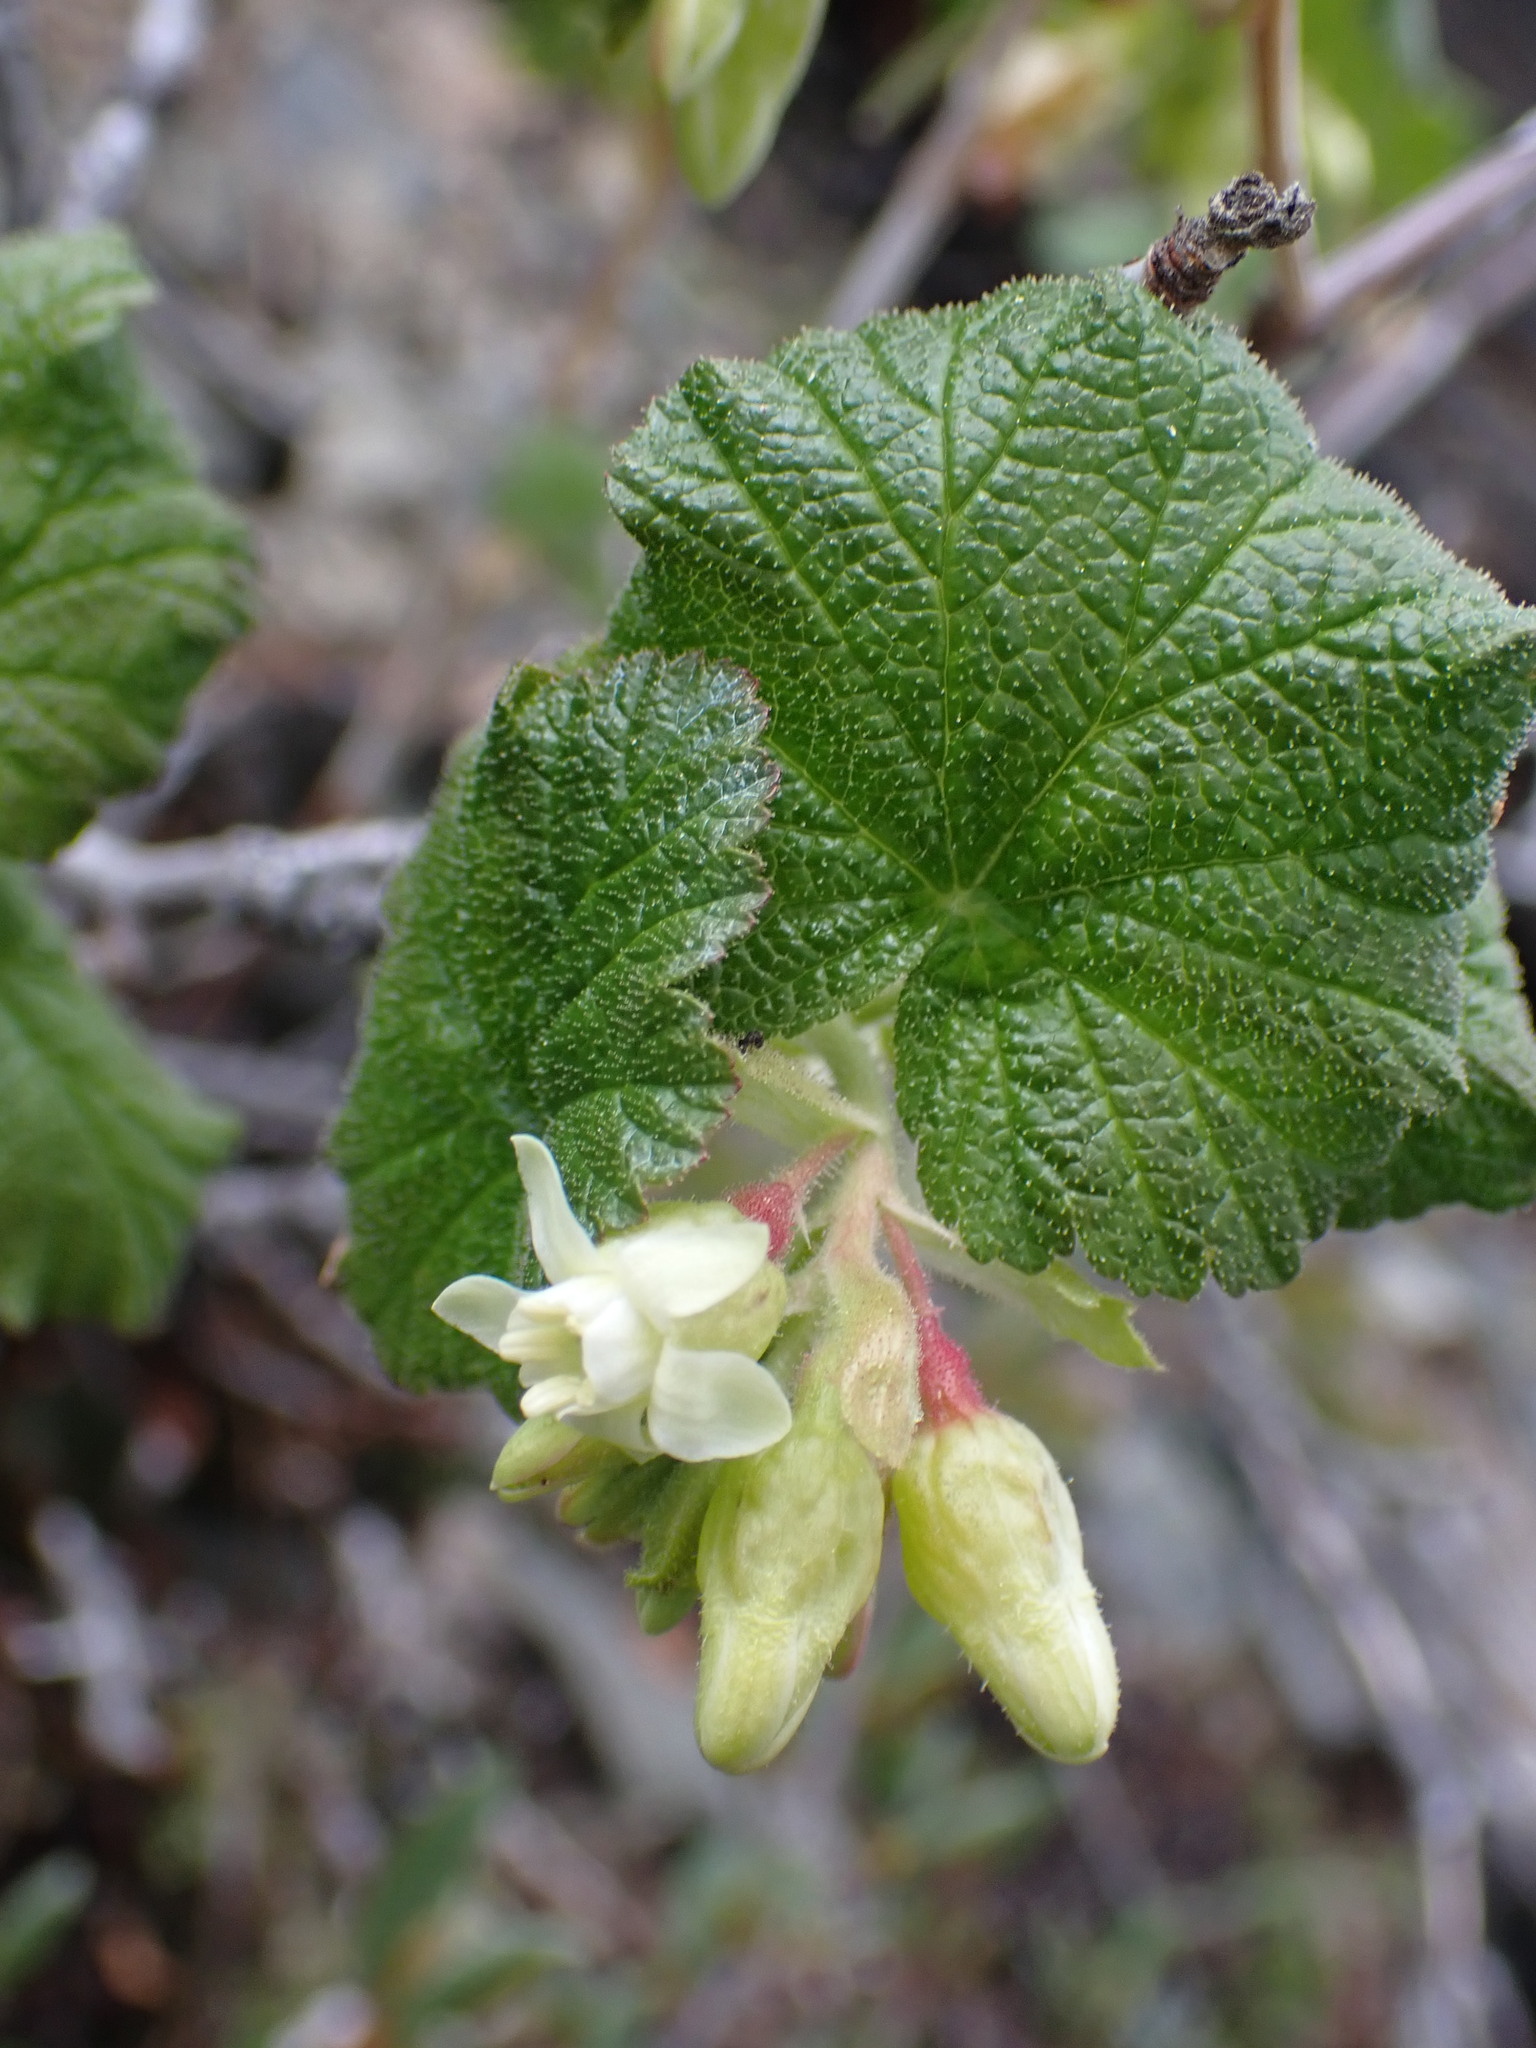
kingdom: Plantae
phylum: Tracheophyta
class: Magnoliopsida
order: Saxifragales
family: Grossulariaceae
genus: Ribes
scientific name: Ribes viscosissimum
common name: Sticky currant
